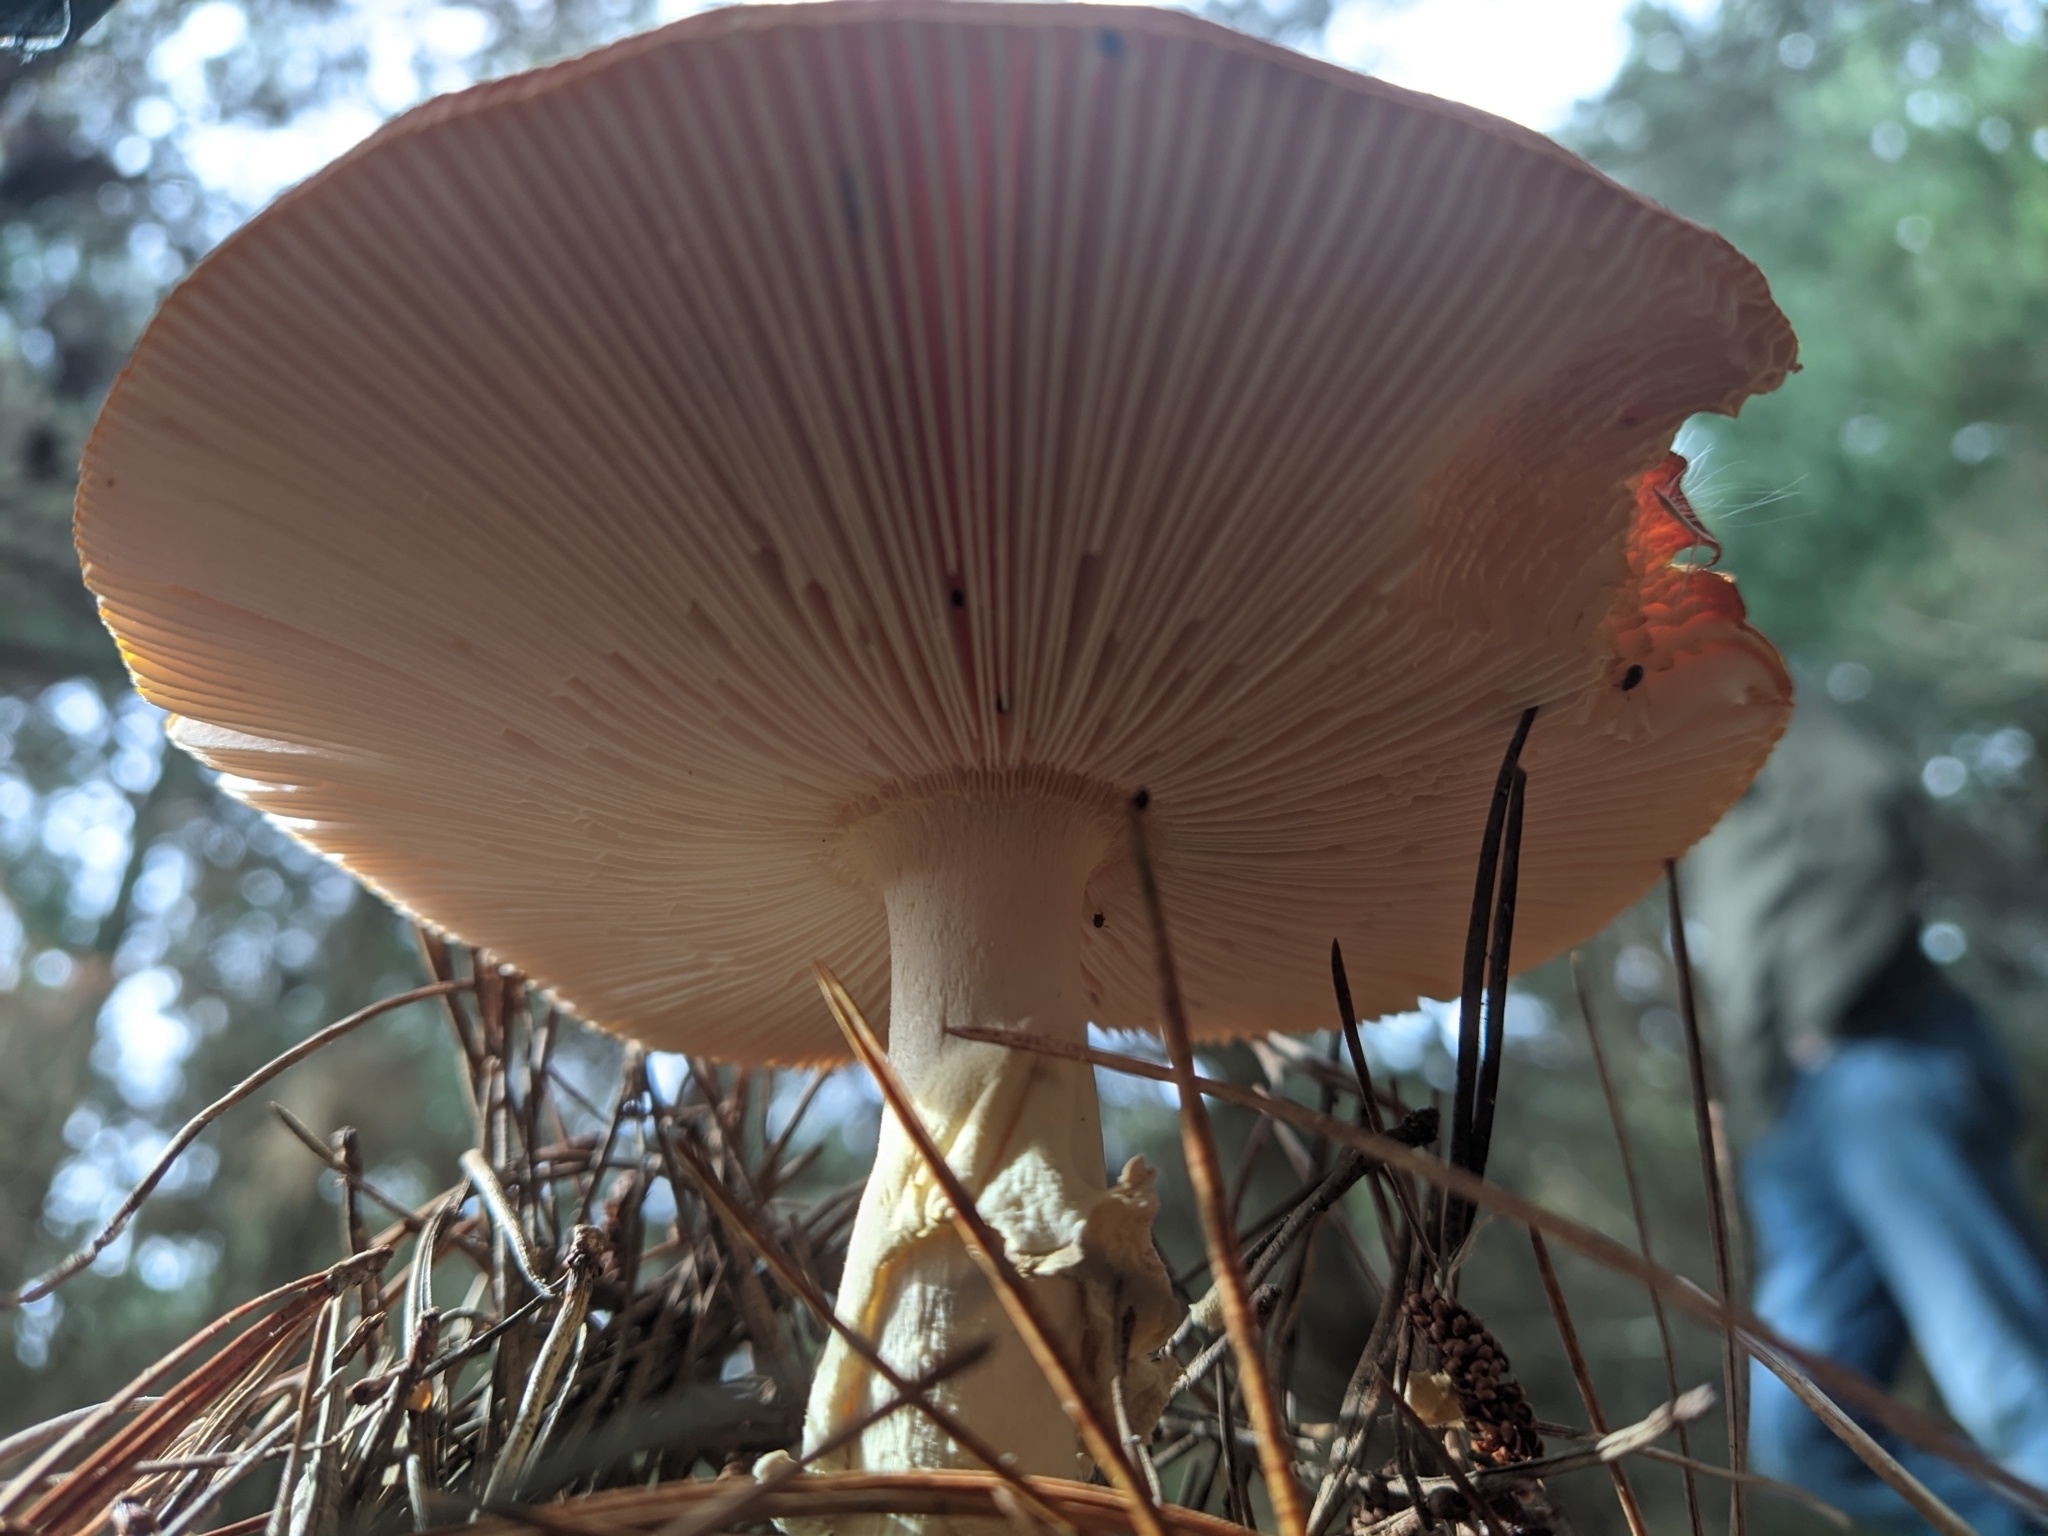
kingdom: Fungi
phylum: Basidiomycota
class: Agaricomycetes
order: Agaricales
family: Amanitaceae
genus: Amanita
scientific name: Amanita muscaria
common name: Fly agaric
